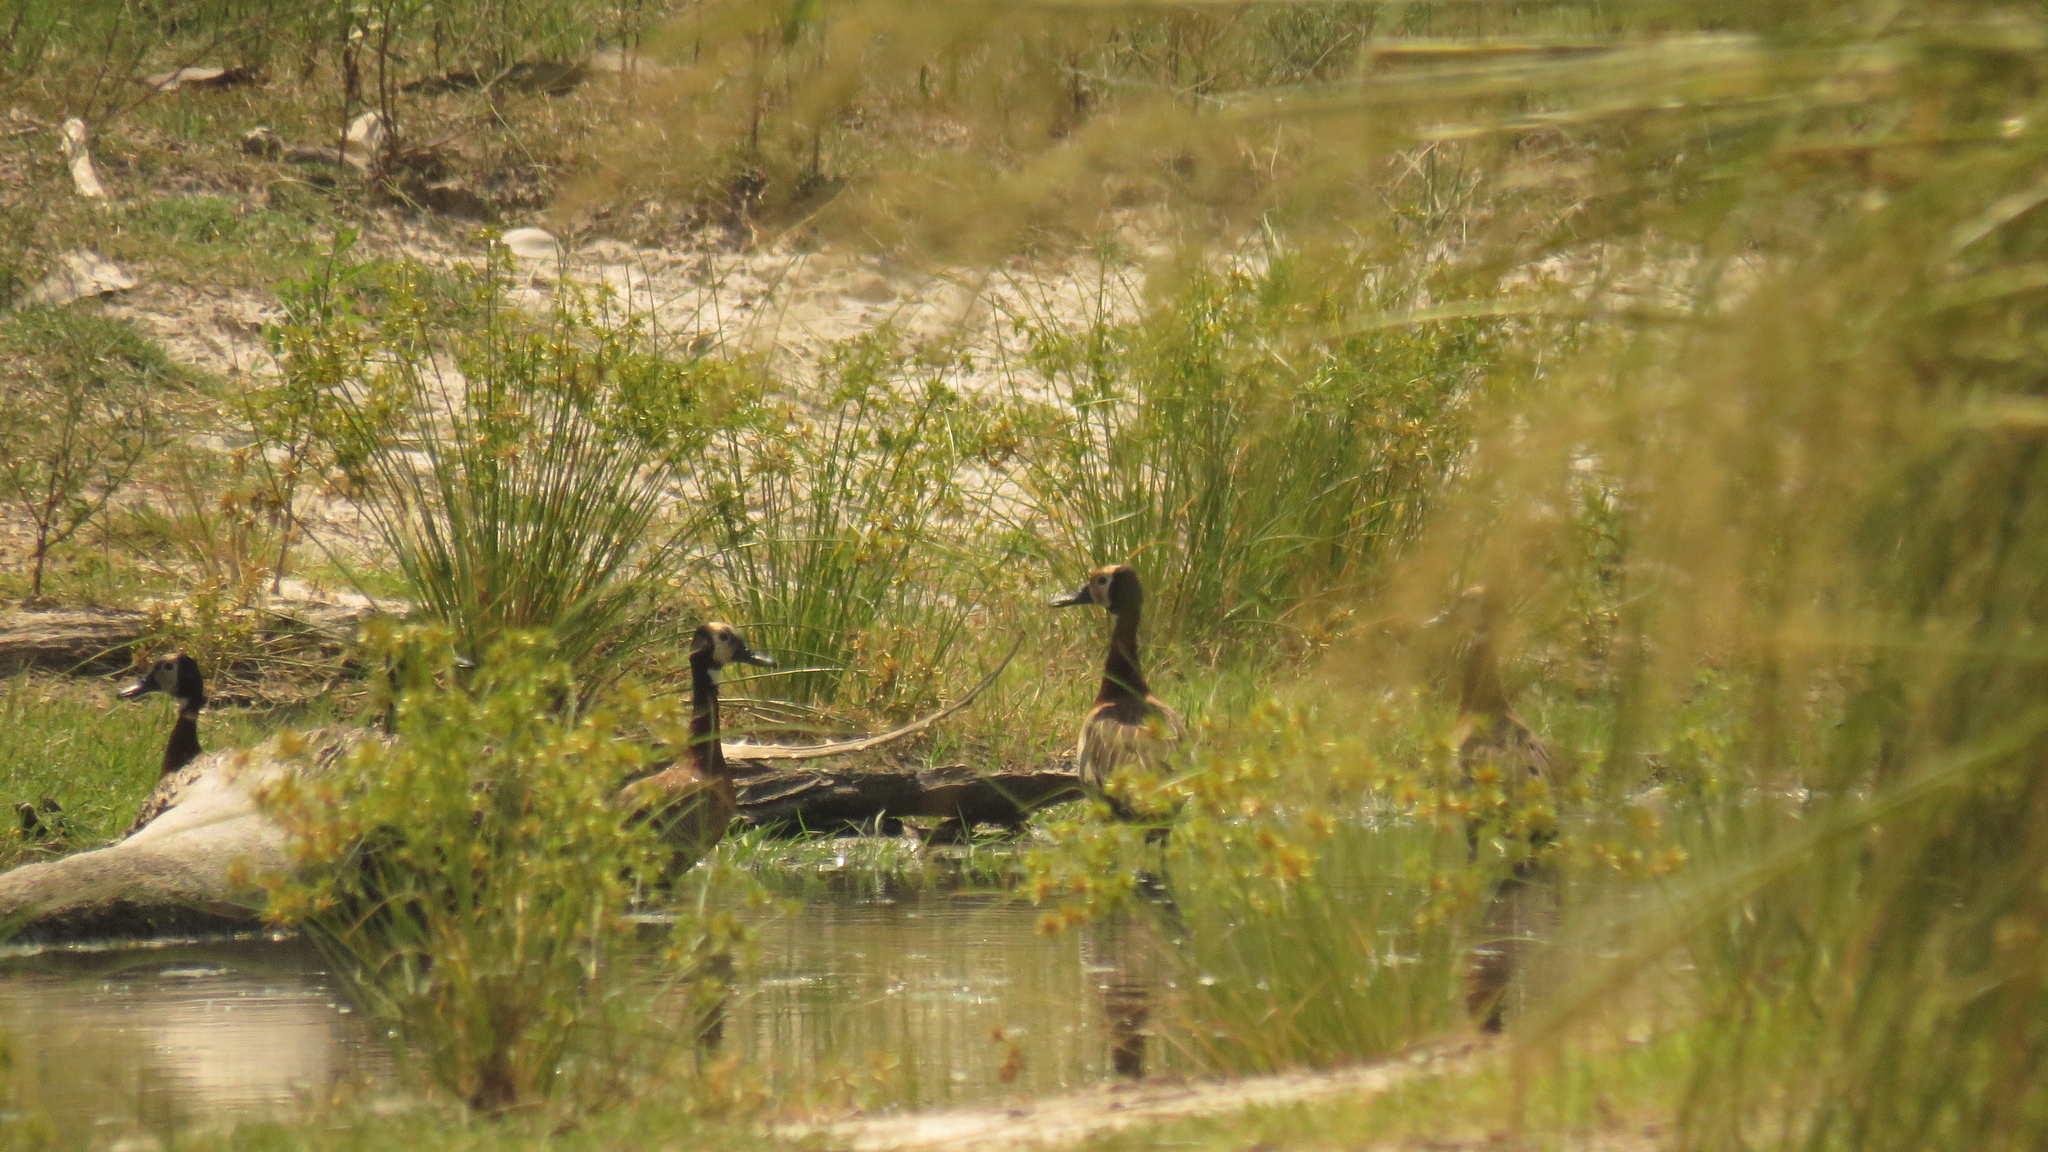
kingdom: Animalia
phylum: Chordata
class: Aves
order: Anseriformes
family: Anatidae
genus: Dendrocygna
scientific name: Dendrocygna viduata
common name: White-faced whistling duck
